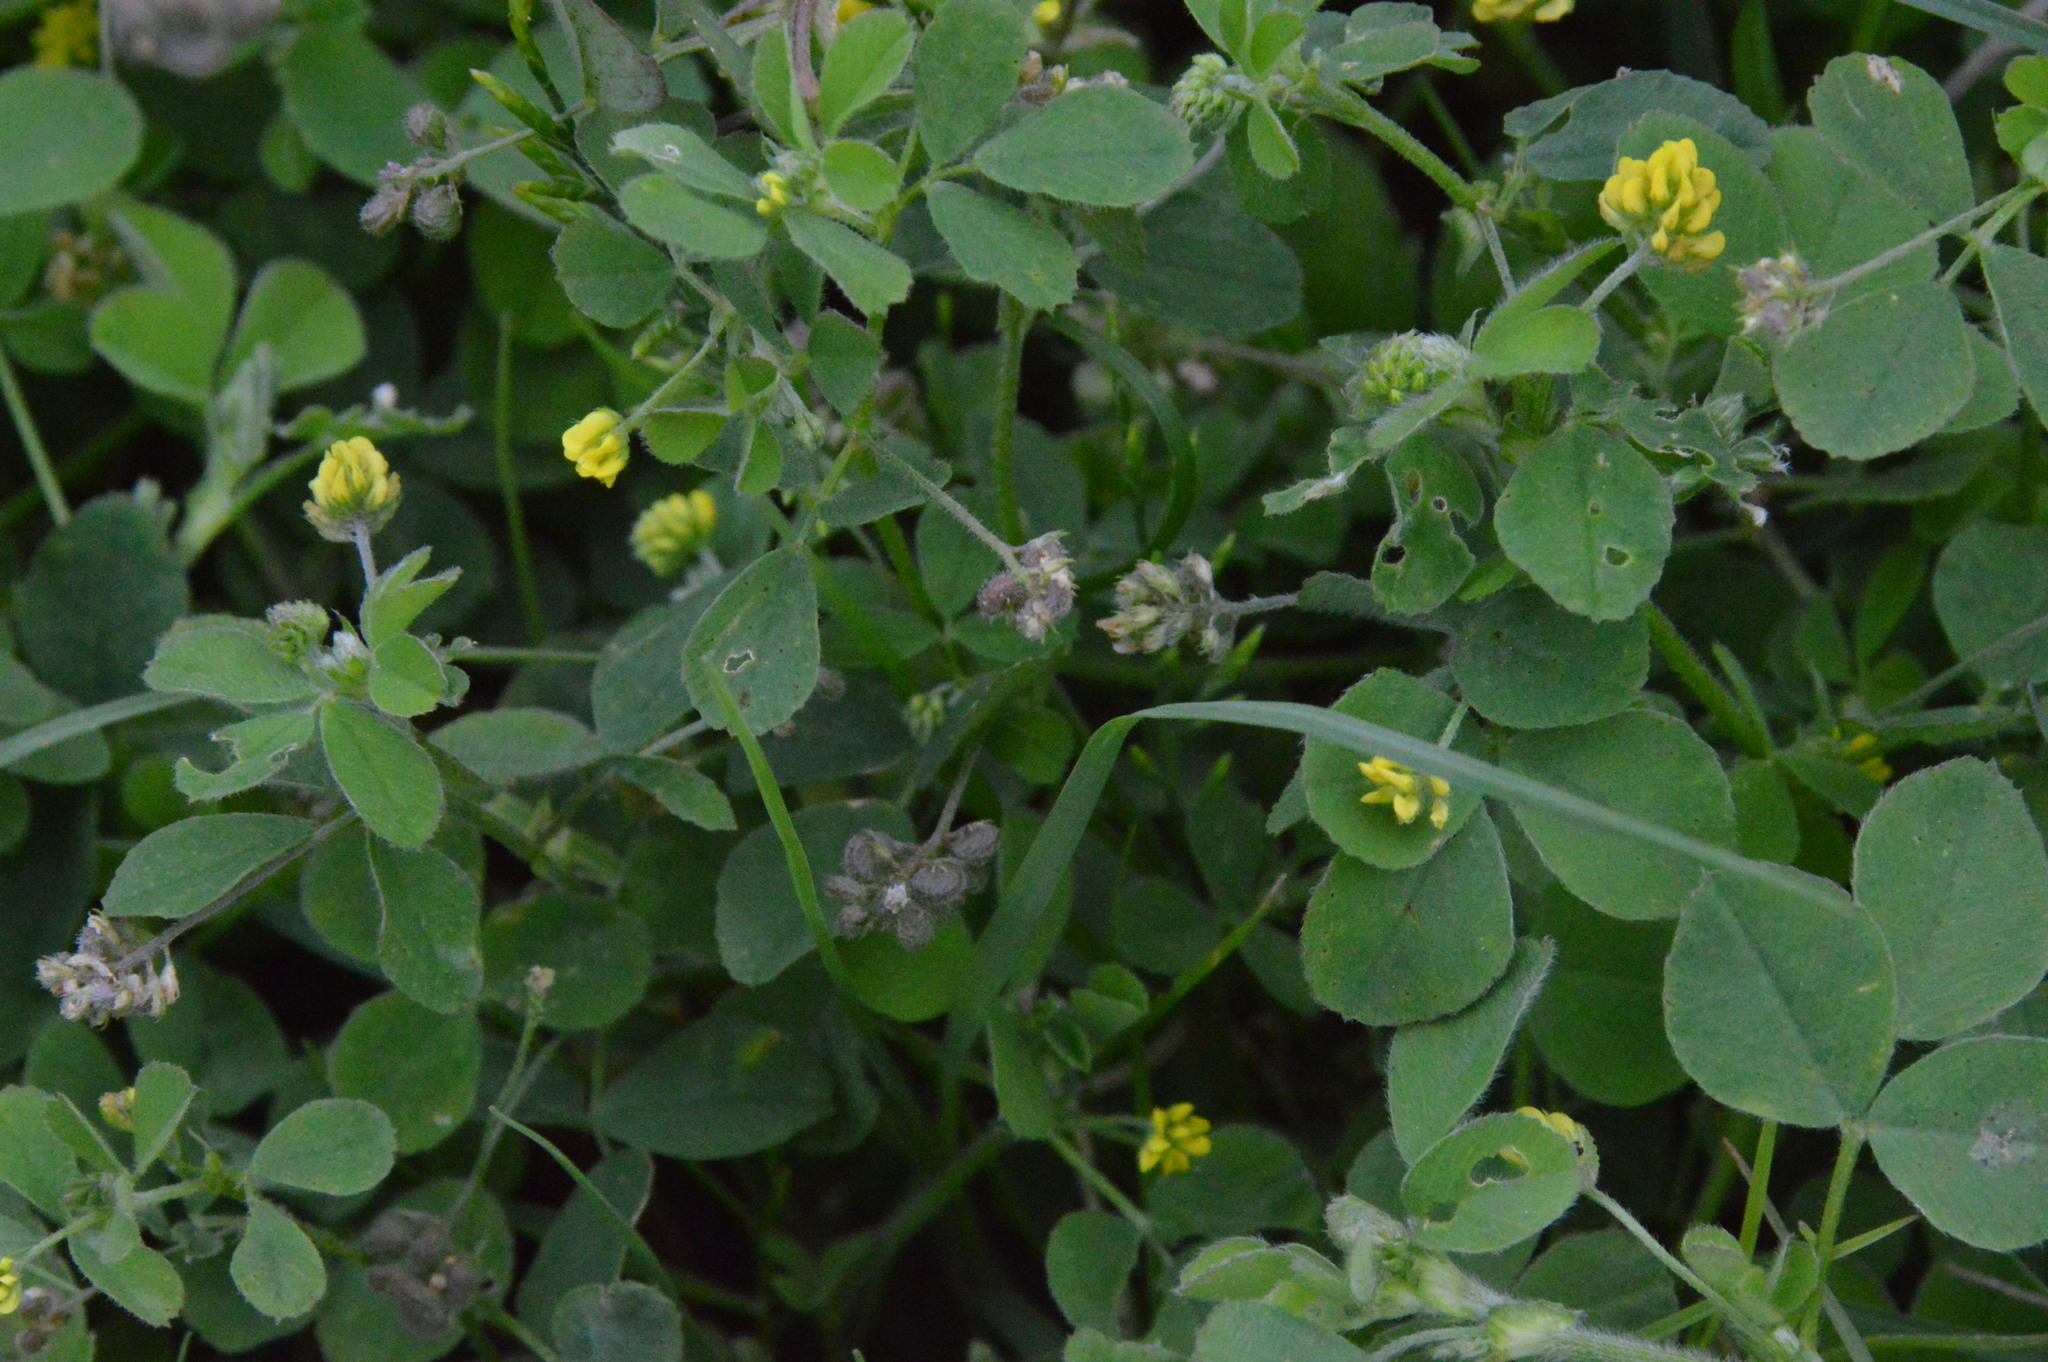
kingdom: Plantae
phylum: Tracheophyta
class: Magnoliopsida
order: Fabales
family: Fabaceae
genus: Medicago
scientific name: Medicago lupulina
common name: Black medick
